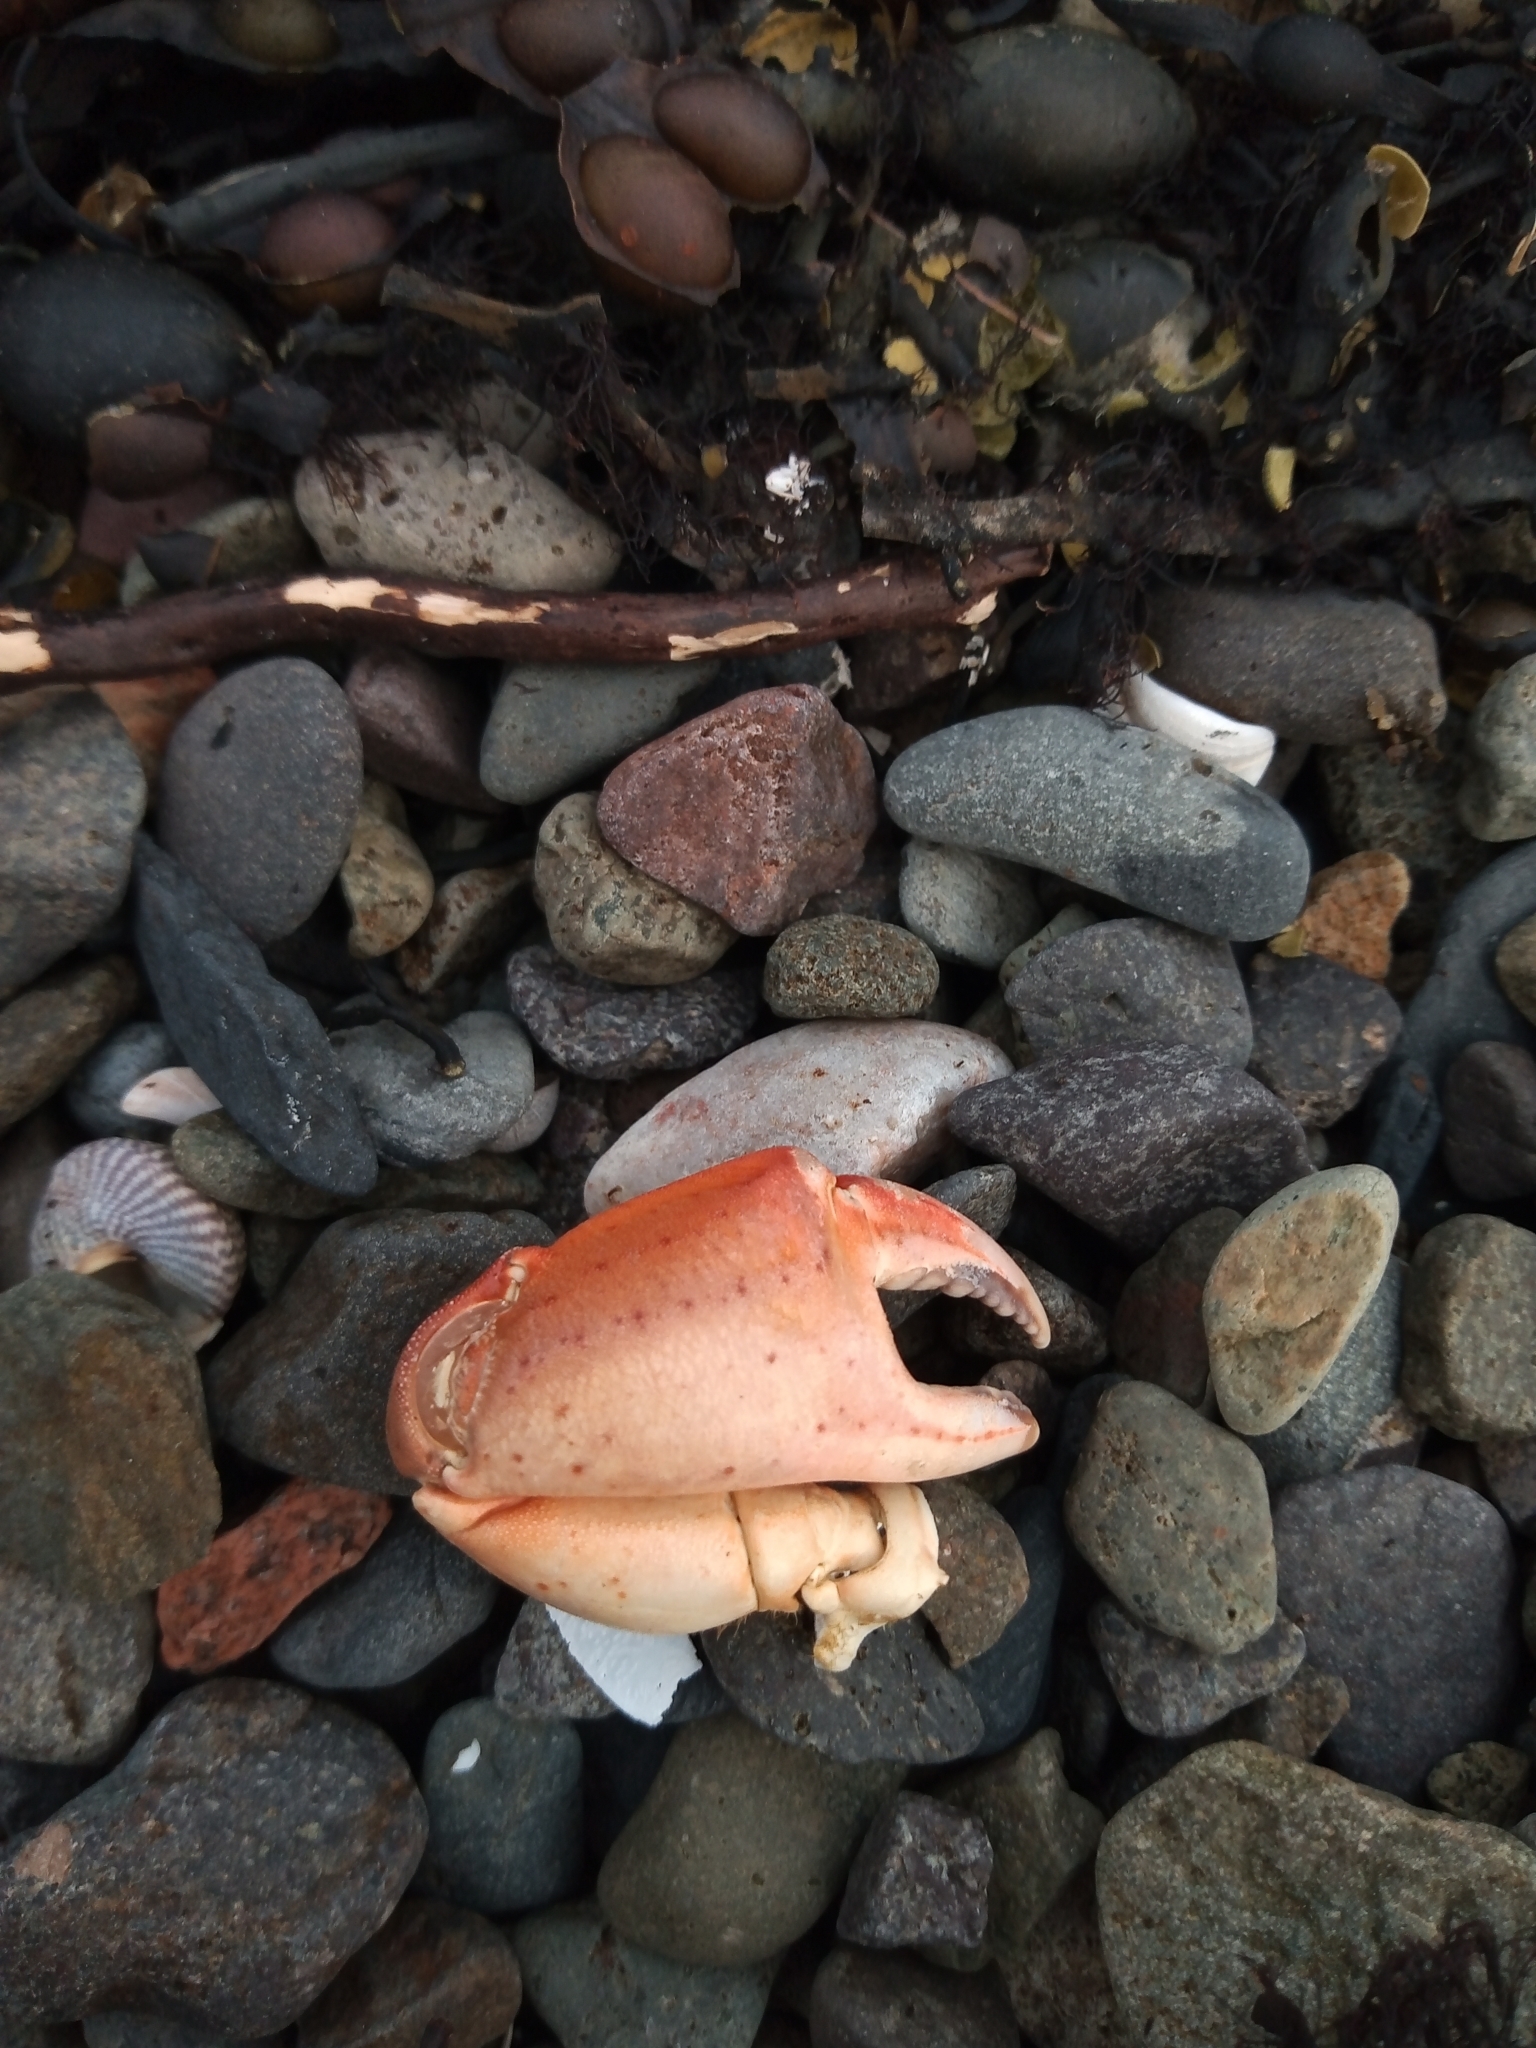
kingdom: Animalia
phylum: Arthropoda
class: Malacostraca
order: Decapoda
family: Carcinidae
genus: Carcinus
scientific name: Carcinus maenas
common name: European green crab
